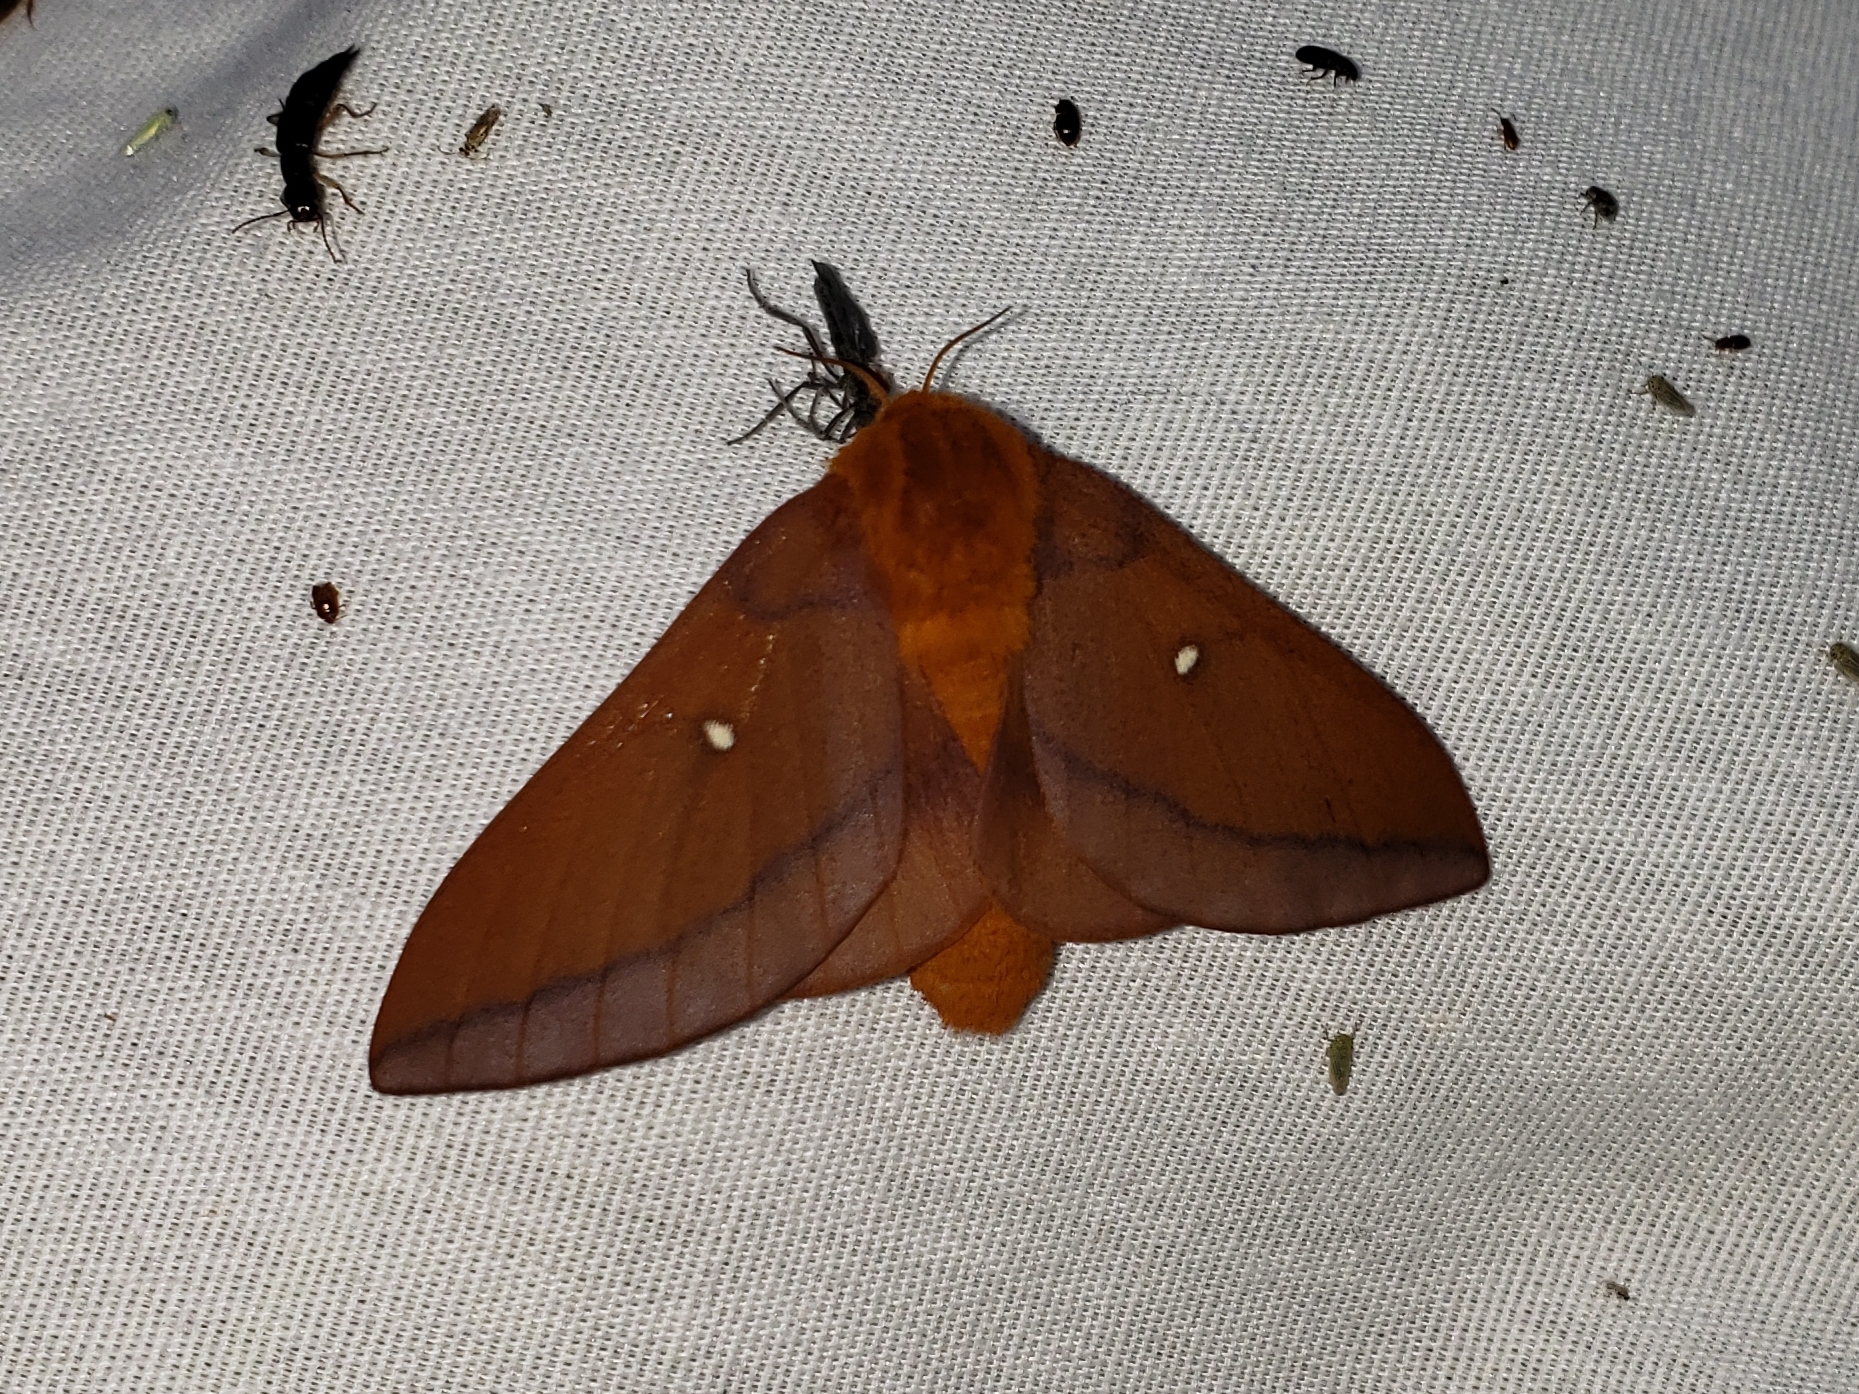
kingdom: Animalia
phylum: Arthropoda
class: Insecta
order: Lepidoptera
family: Saturniidae
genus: Anisota
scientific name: Anisota virginiensis
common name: Pink striped oakworm moth
